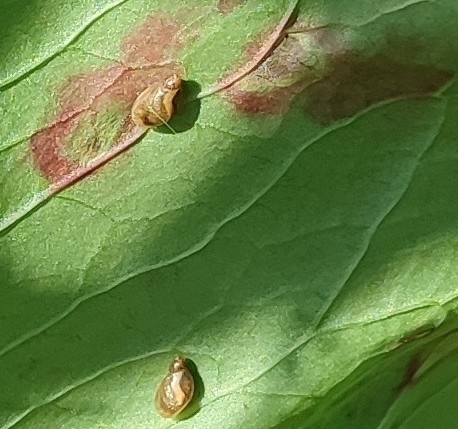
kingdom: Animalia
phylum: Mollusca
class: Gastropoda
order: Stylommatophora
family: Succineidae
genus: Succinea
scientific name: Succinea putris
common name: European ambersnail
